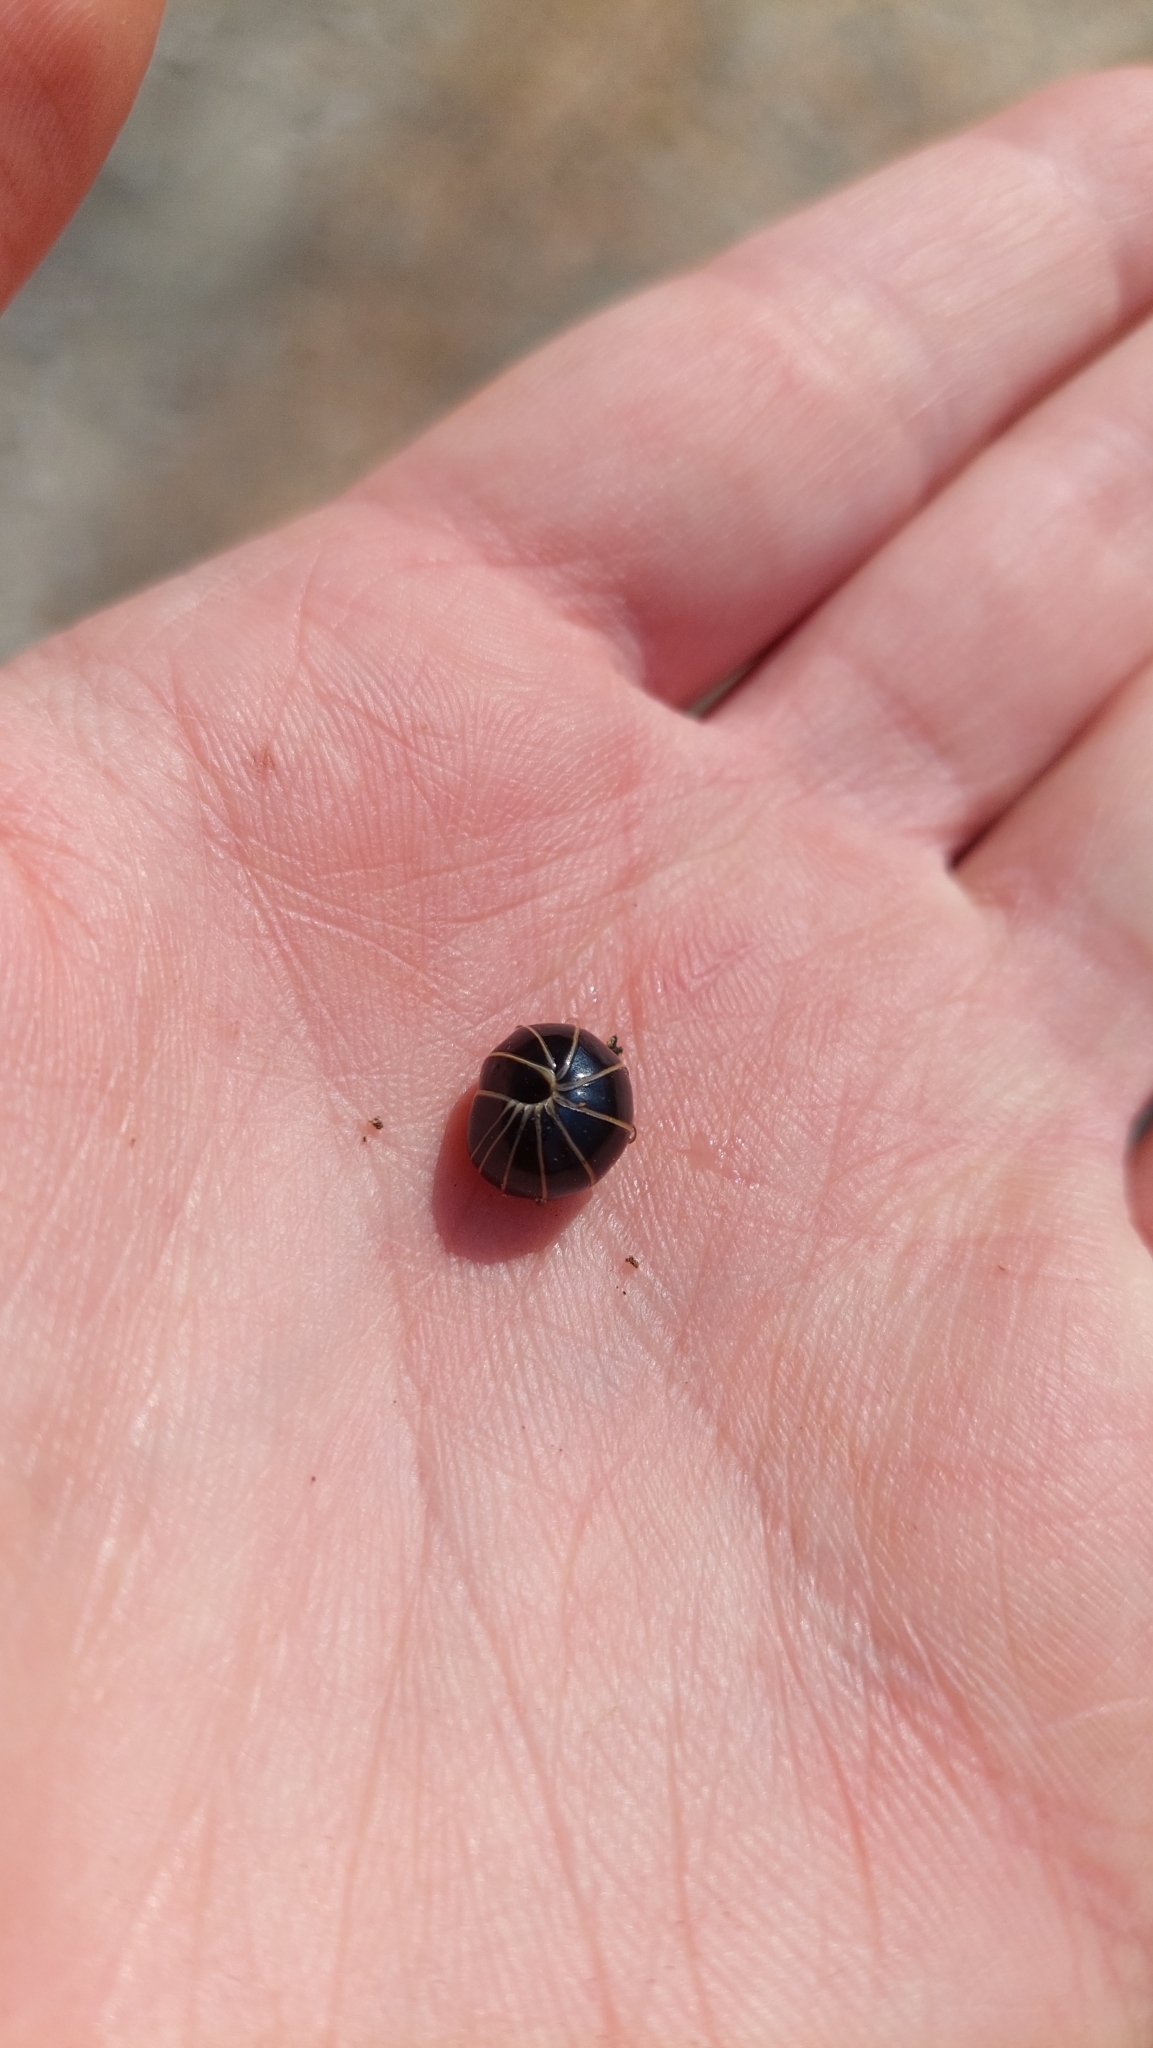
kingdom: Animalia
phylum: Arthropoda
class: Diplopoda
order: Glomerida
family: Glomeridae
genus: Glomeris
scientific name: Glomeris marginata
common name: Bordered pill millipede
